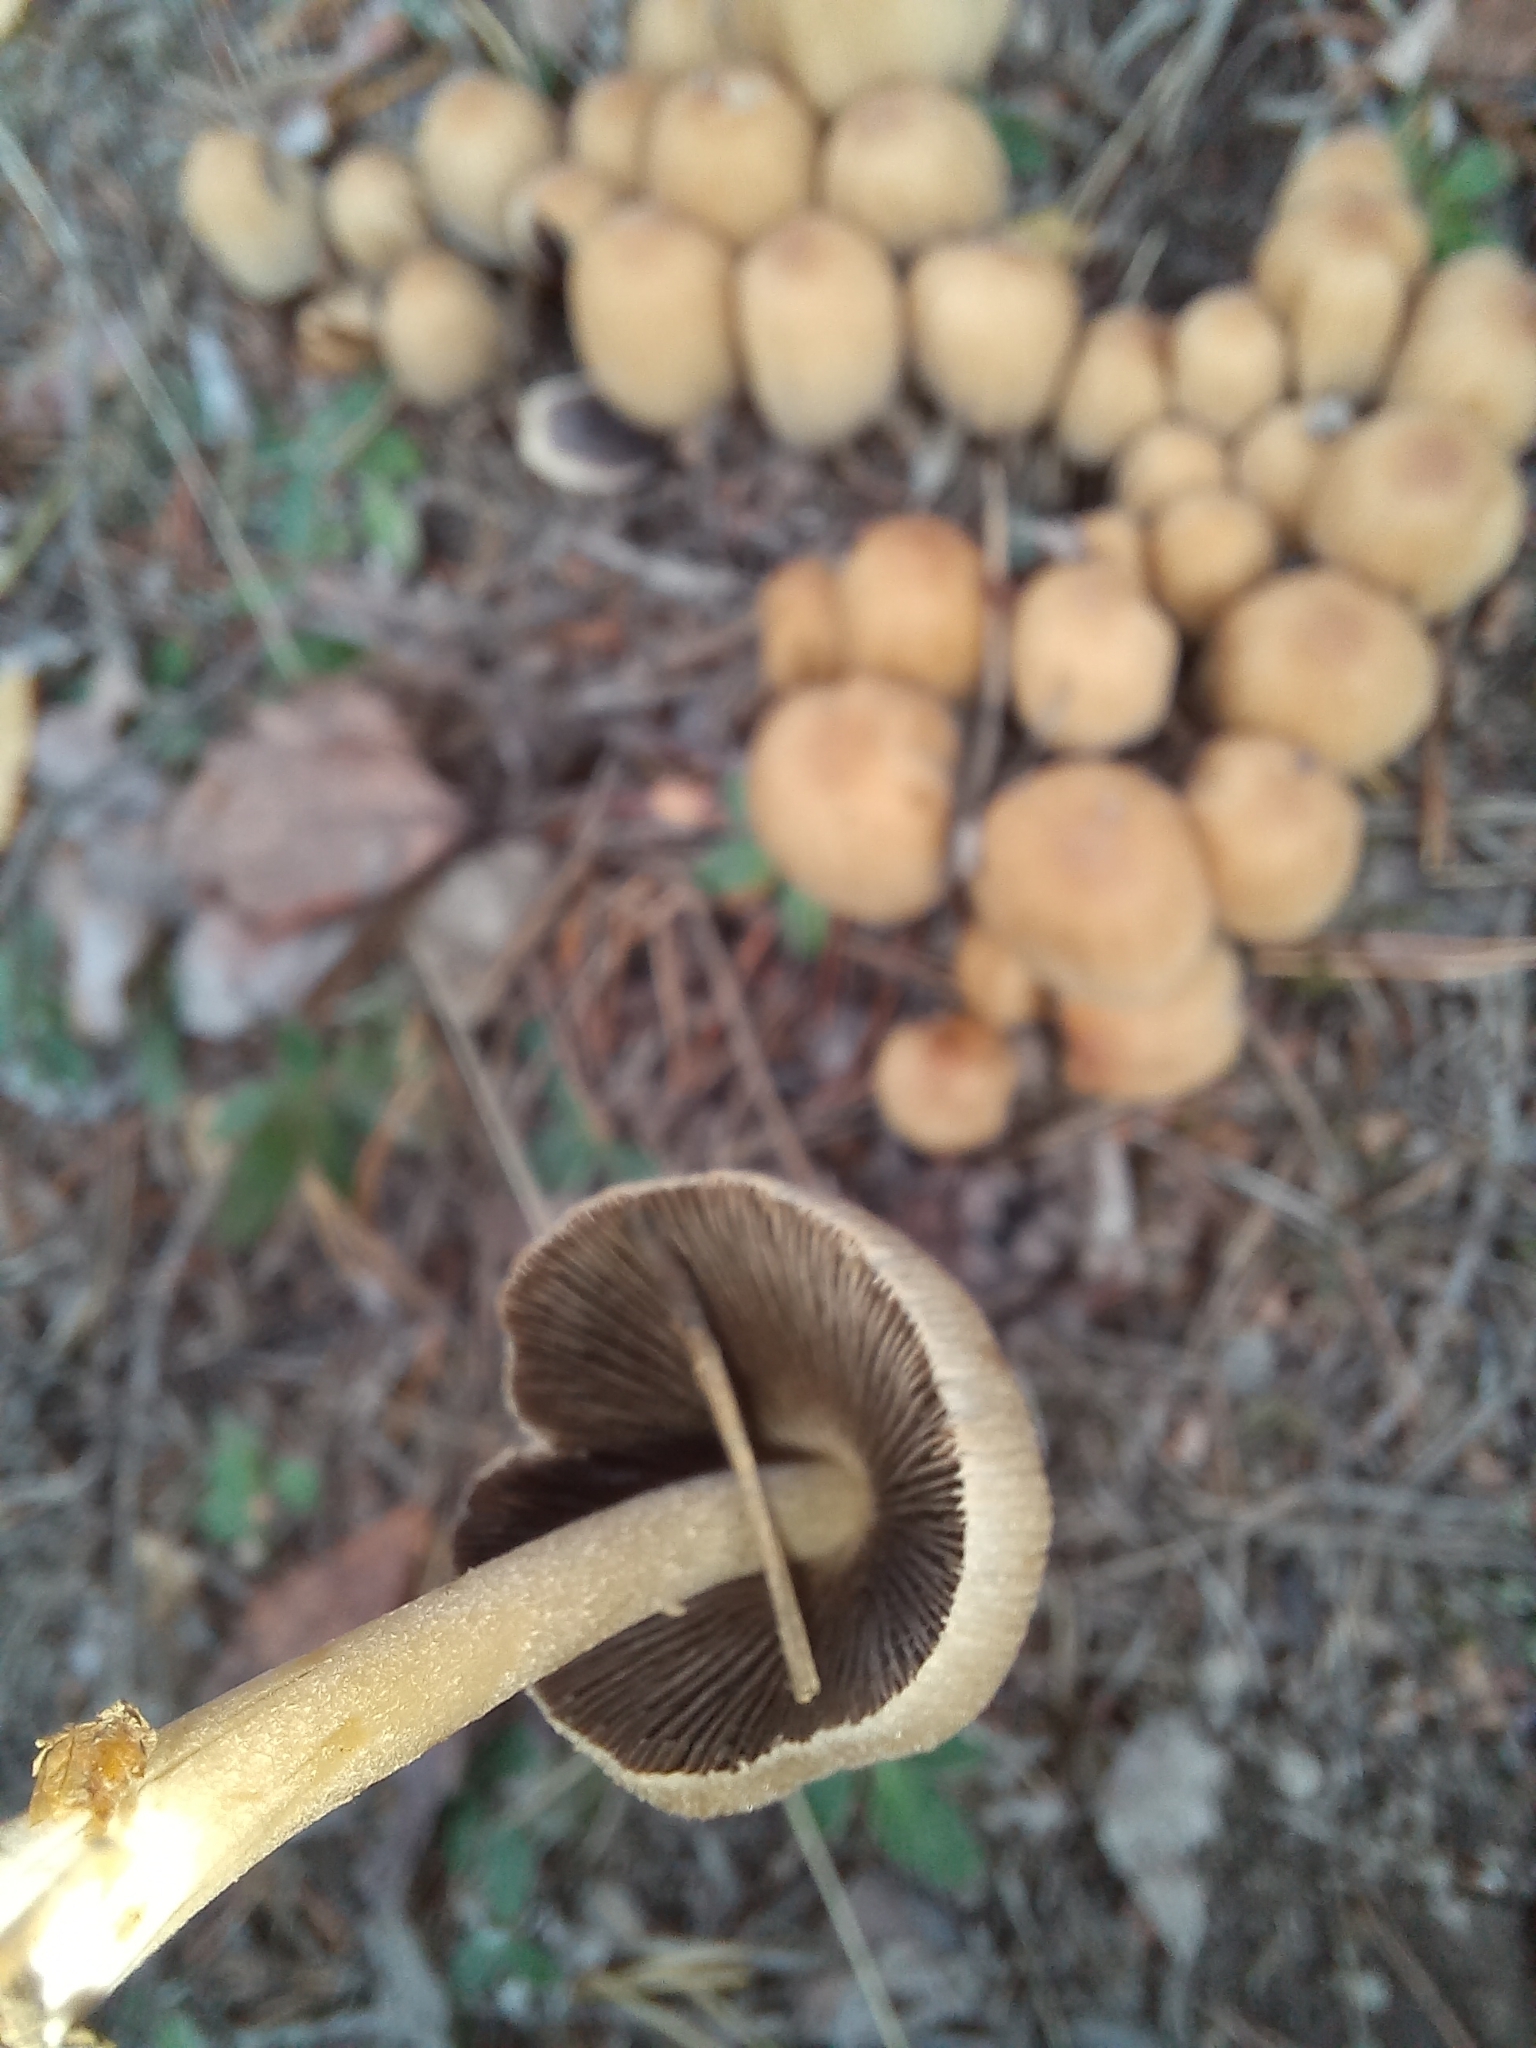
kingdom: Fungi
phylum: Basidiomycota
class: Agaricomycetes
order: Agaricales
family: Psathyrellaceae
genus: Coprinellus
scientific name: Coprinellus micaceus
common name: Glistening ink-cap
